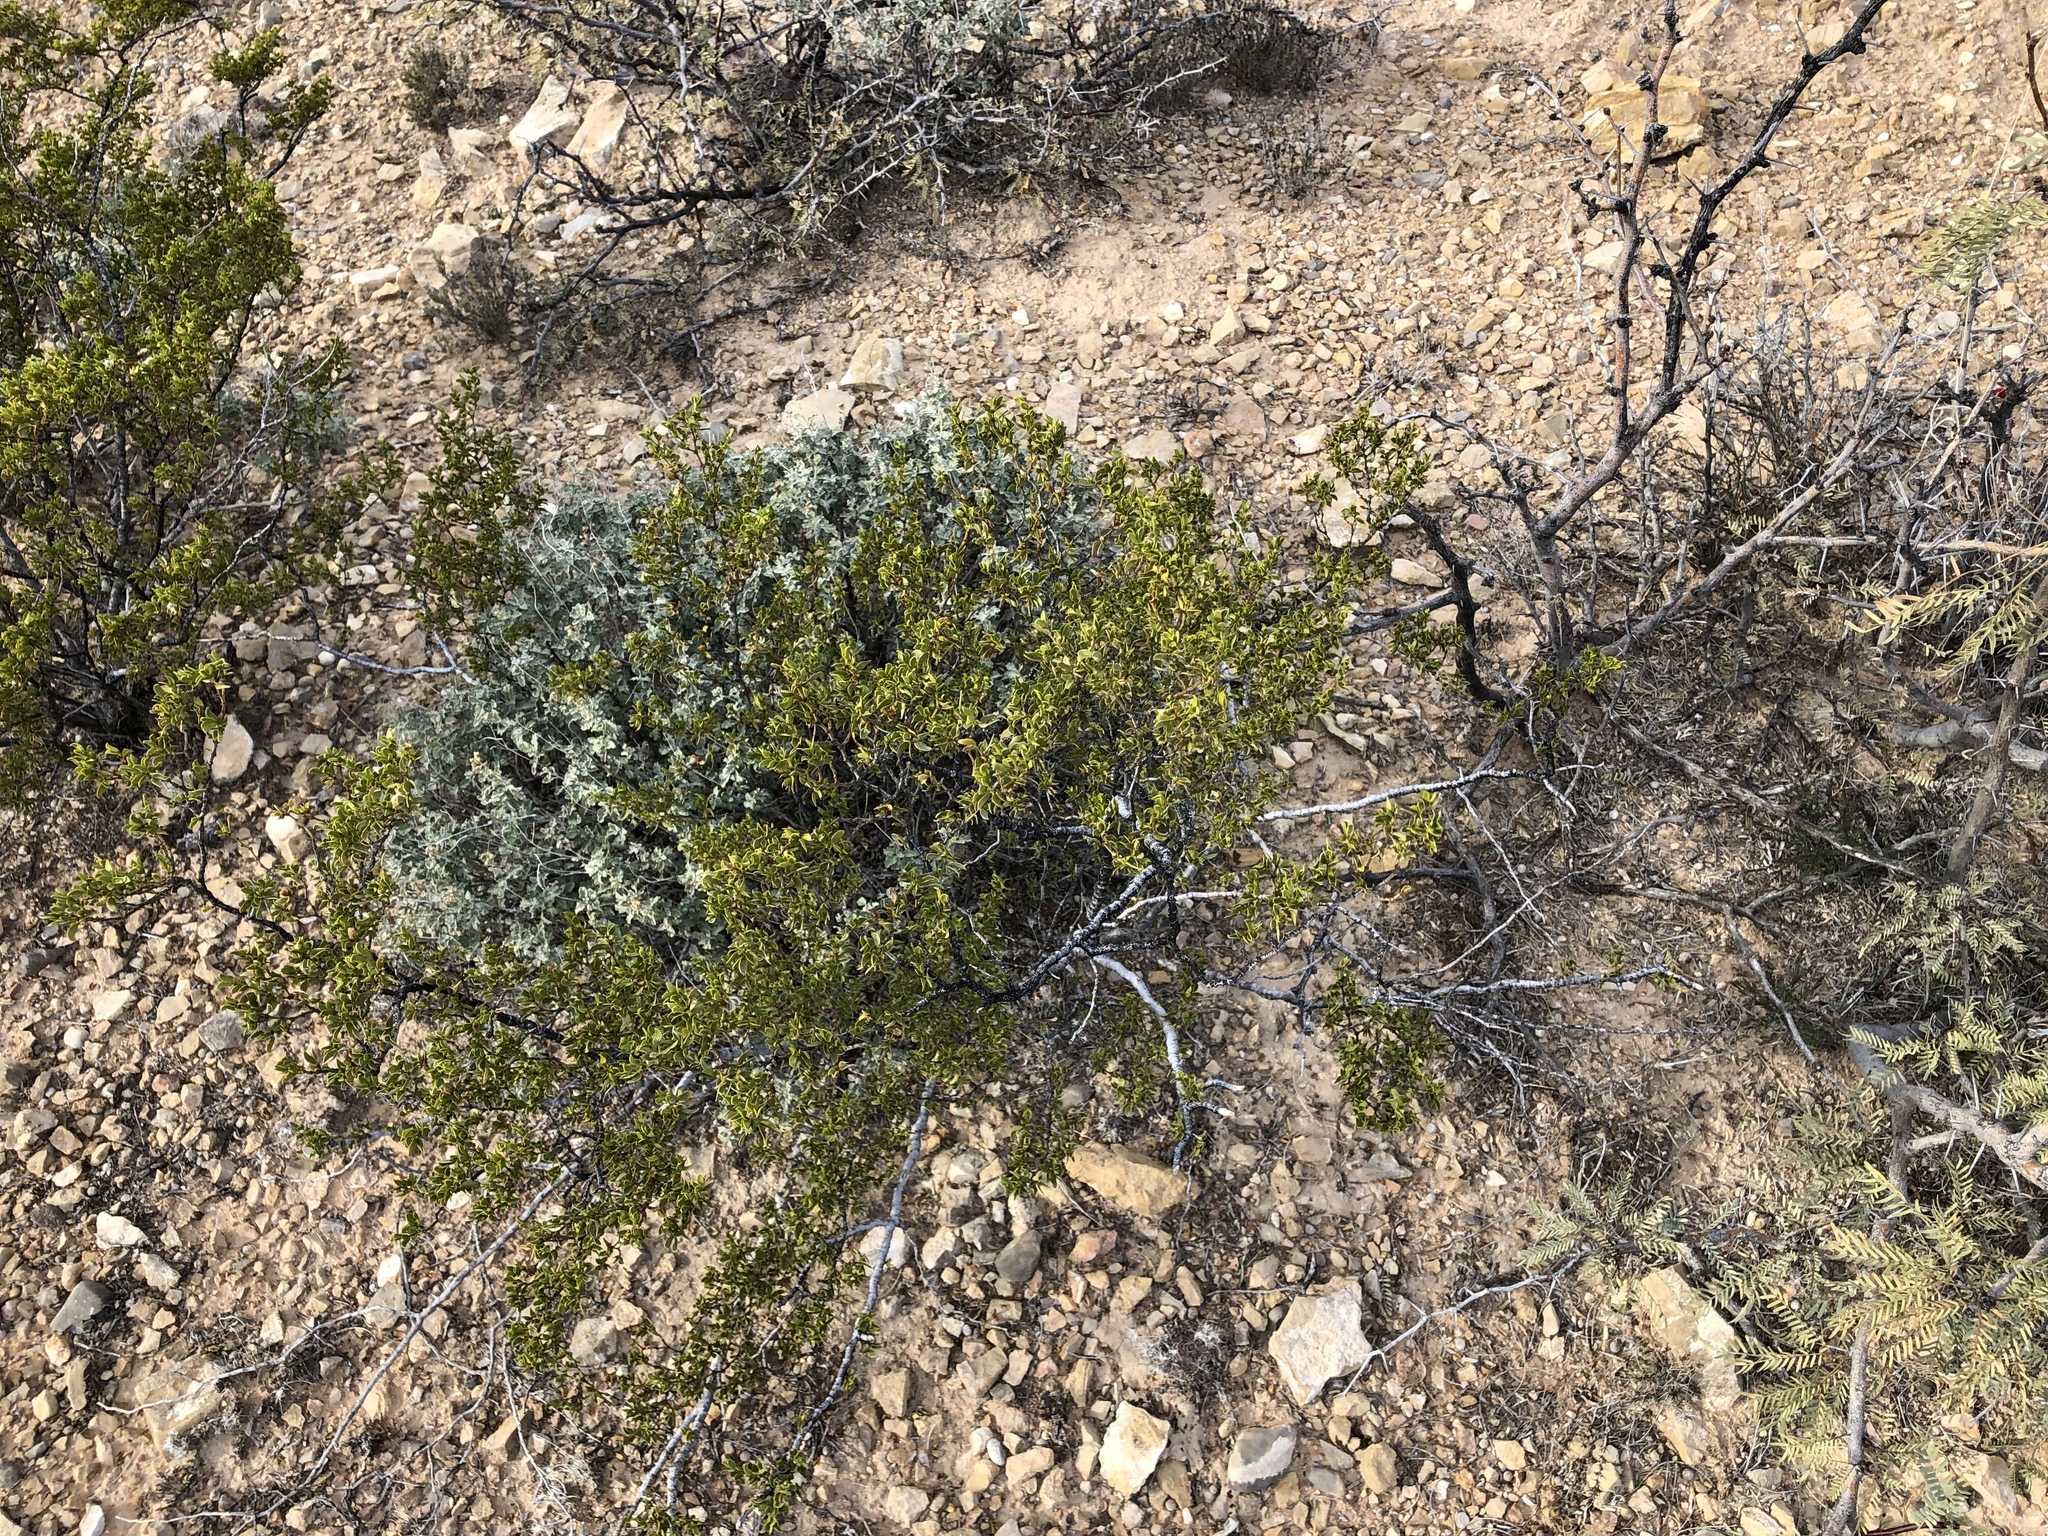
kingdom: Plantae
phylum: Tracheophyta
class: Magnoliopsida
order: Zygophyllales
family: Zygophyllaceae
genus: Larrea
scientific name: Larrea tridentata
